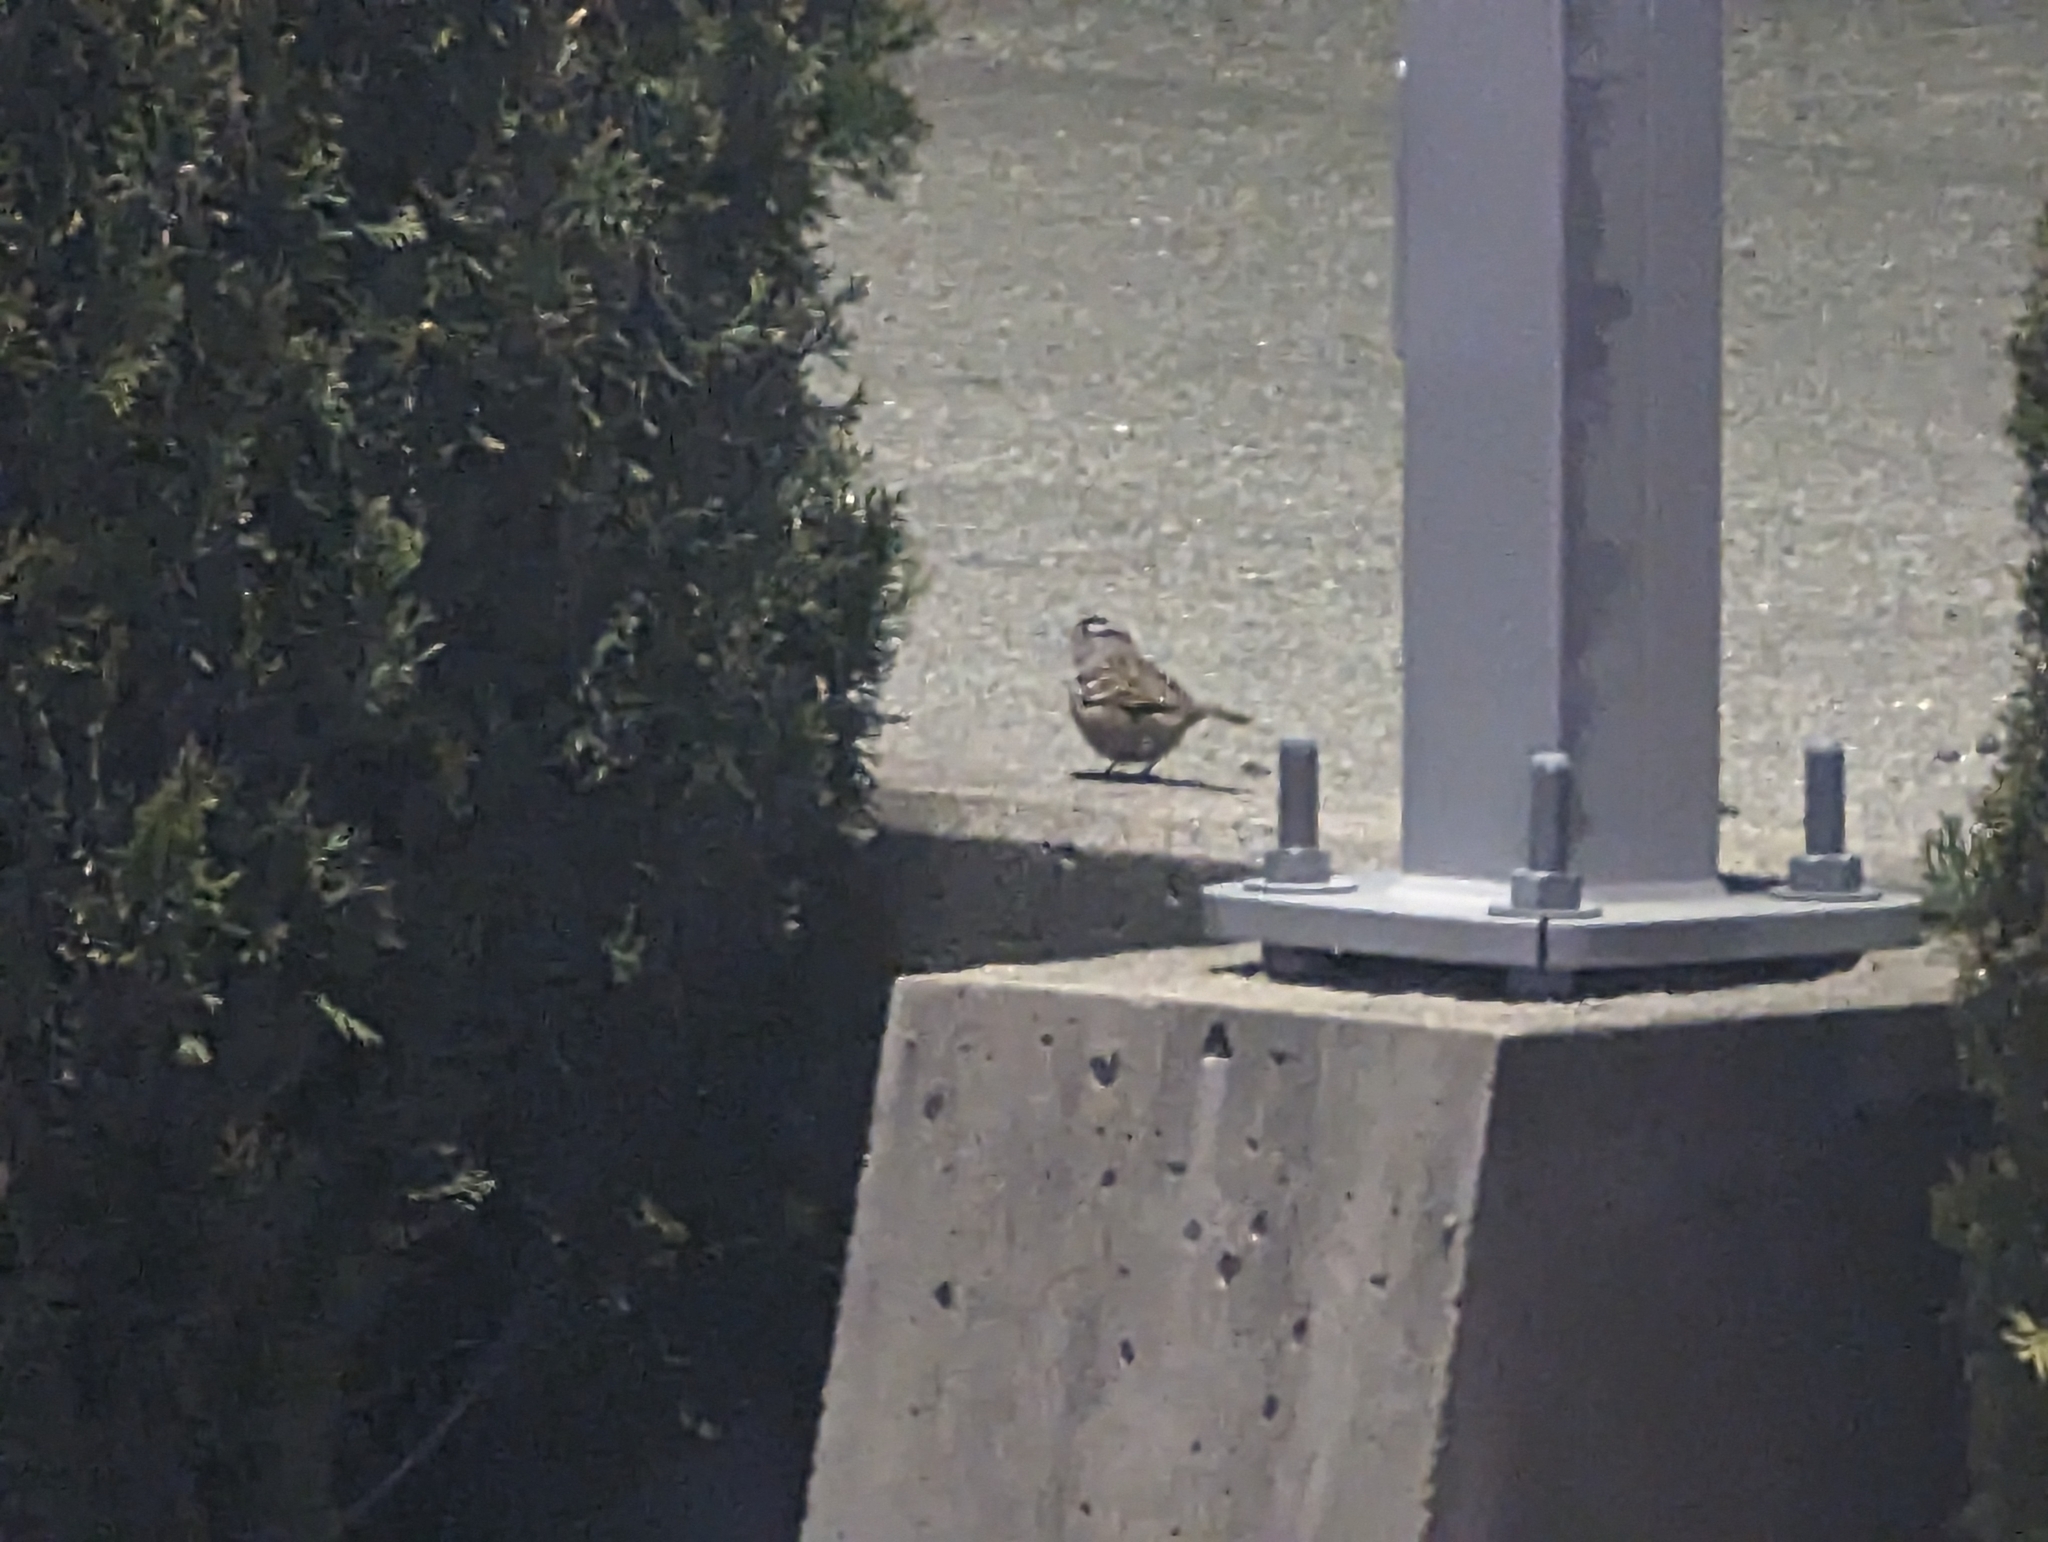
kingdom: Animalia
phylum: Chordata
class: Aves
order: Passeriformes
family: Passerellidae
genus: Zonotrichia
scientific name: Zonotrichia leucophrys
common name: White-crowned sparrow
